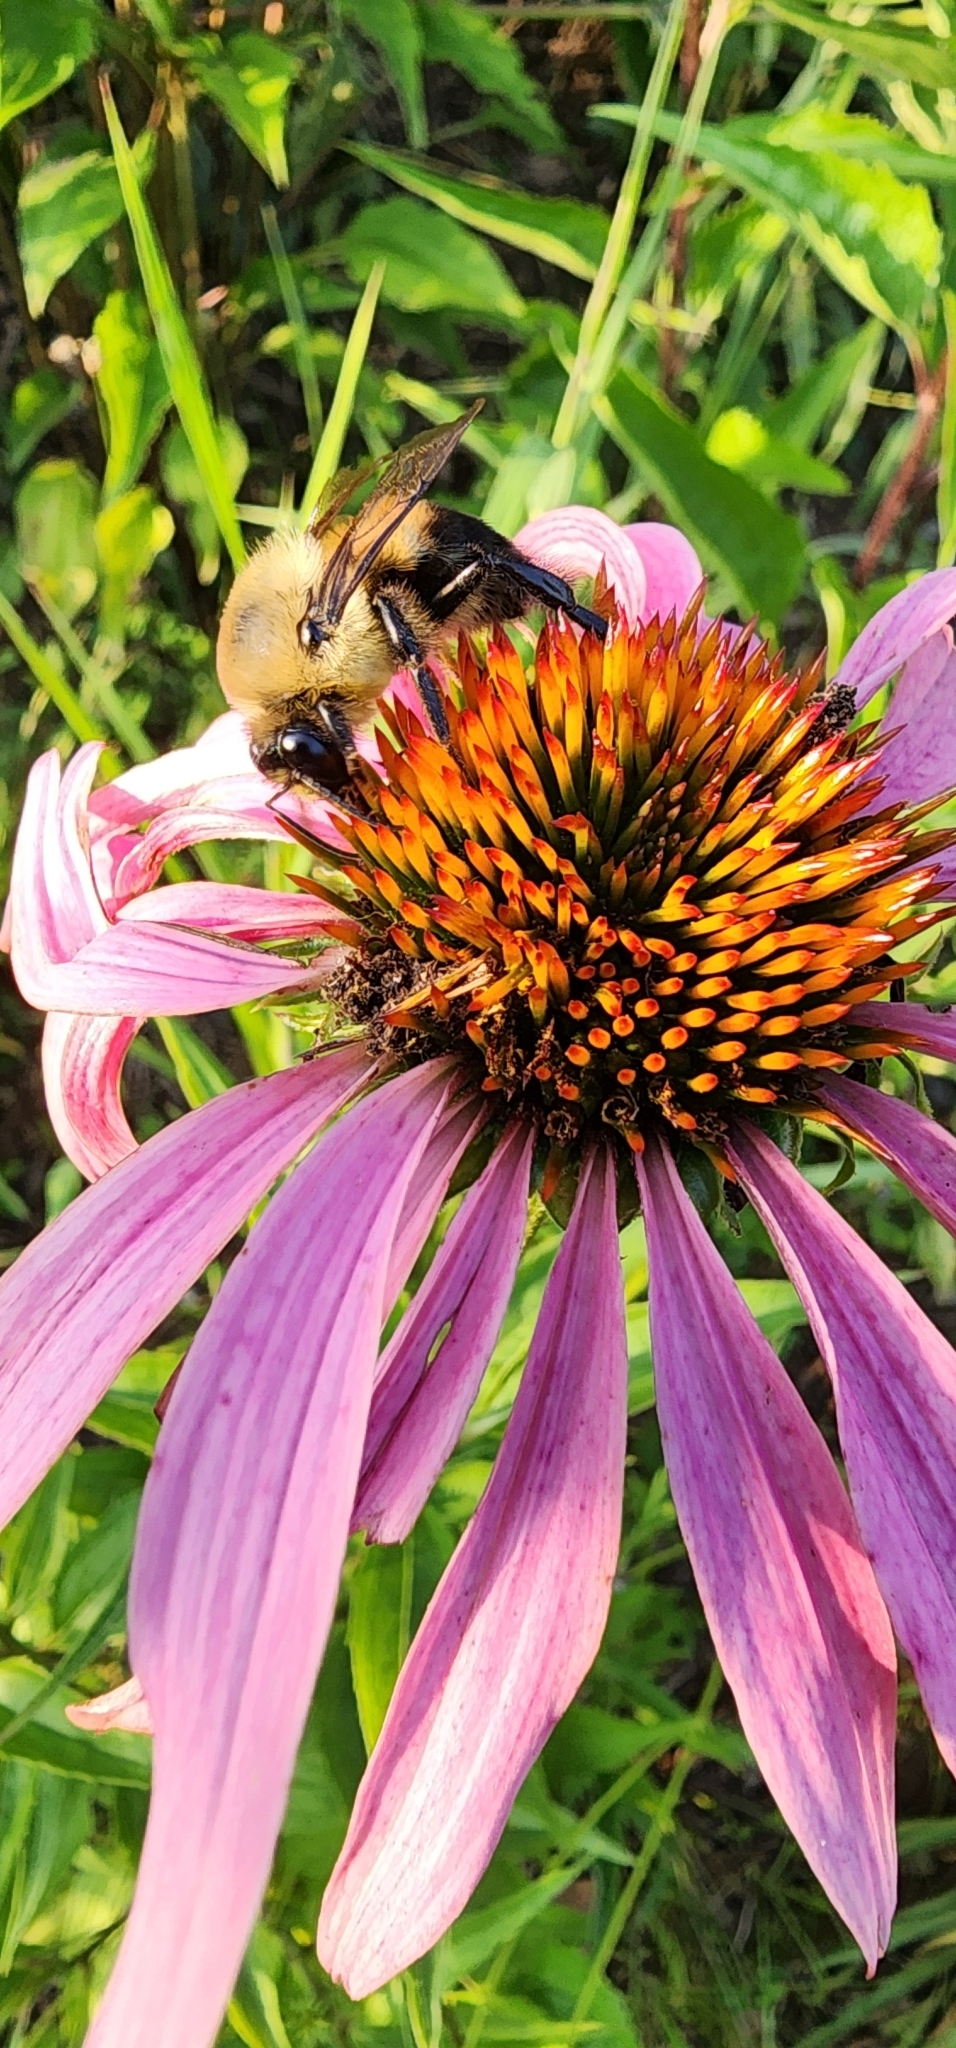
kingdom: Animalia
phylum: Arthropoda
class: Insecta
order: Hymenoptera
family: Apidae
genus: Bombus
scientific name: Bombus griseocollis
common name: Brown-belted bumble bee
